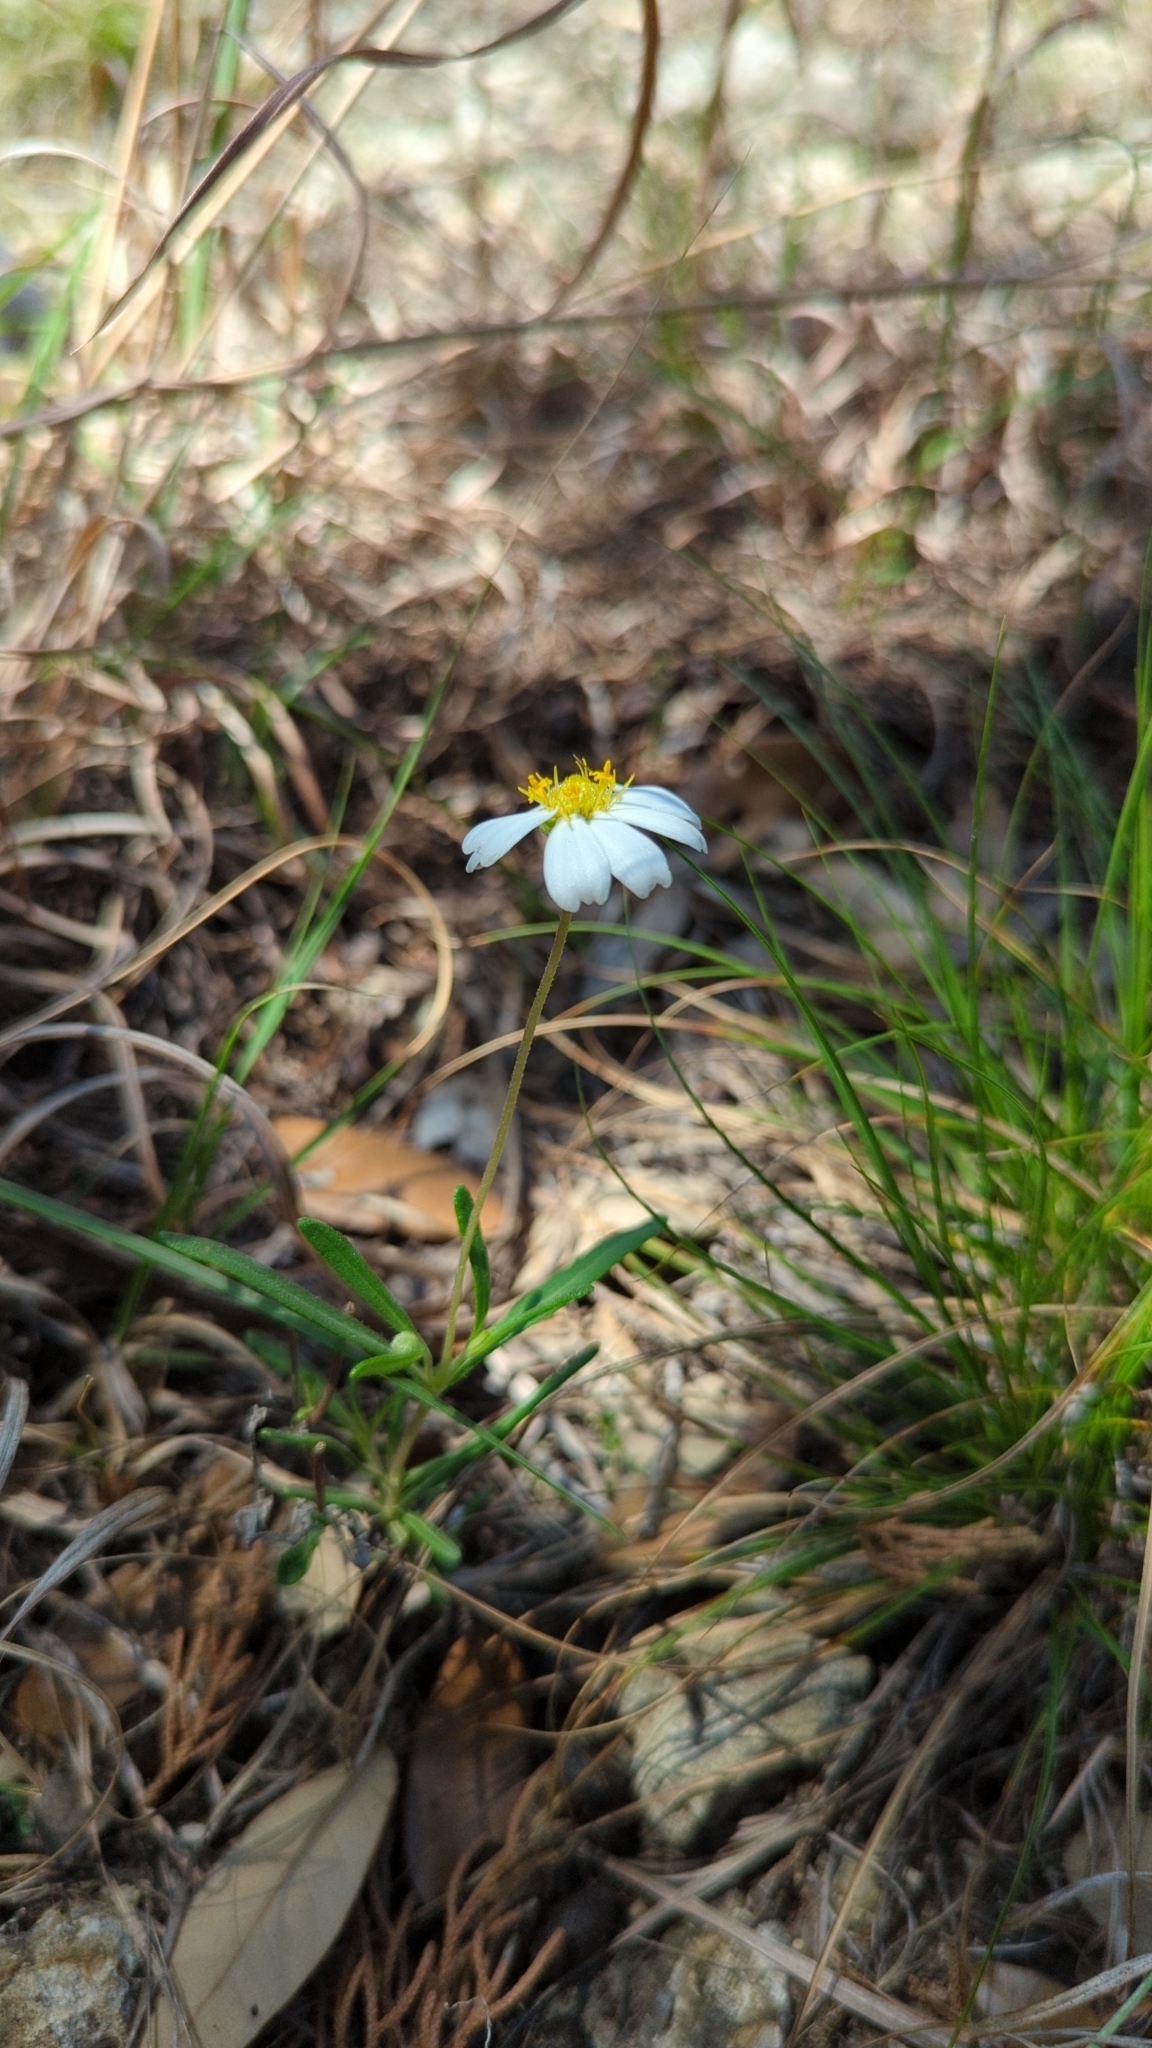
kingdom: Plantae
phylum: Tracheophyta
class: Magnoliopsida
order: Asterales
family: Asteraceae
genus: Melampodium
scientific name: Melampodium leucanthum
